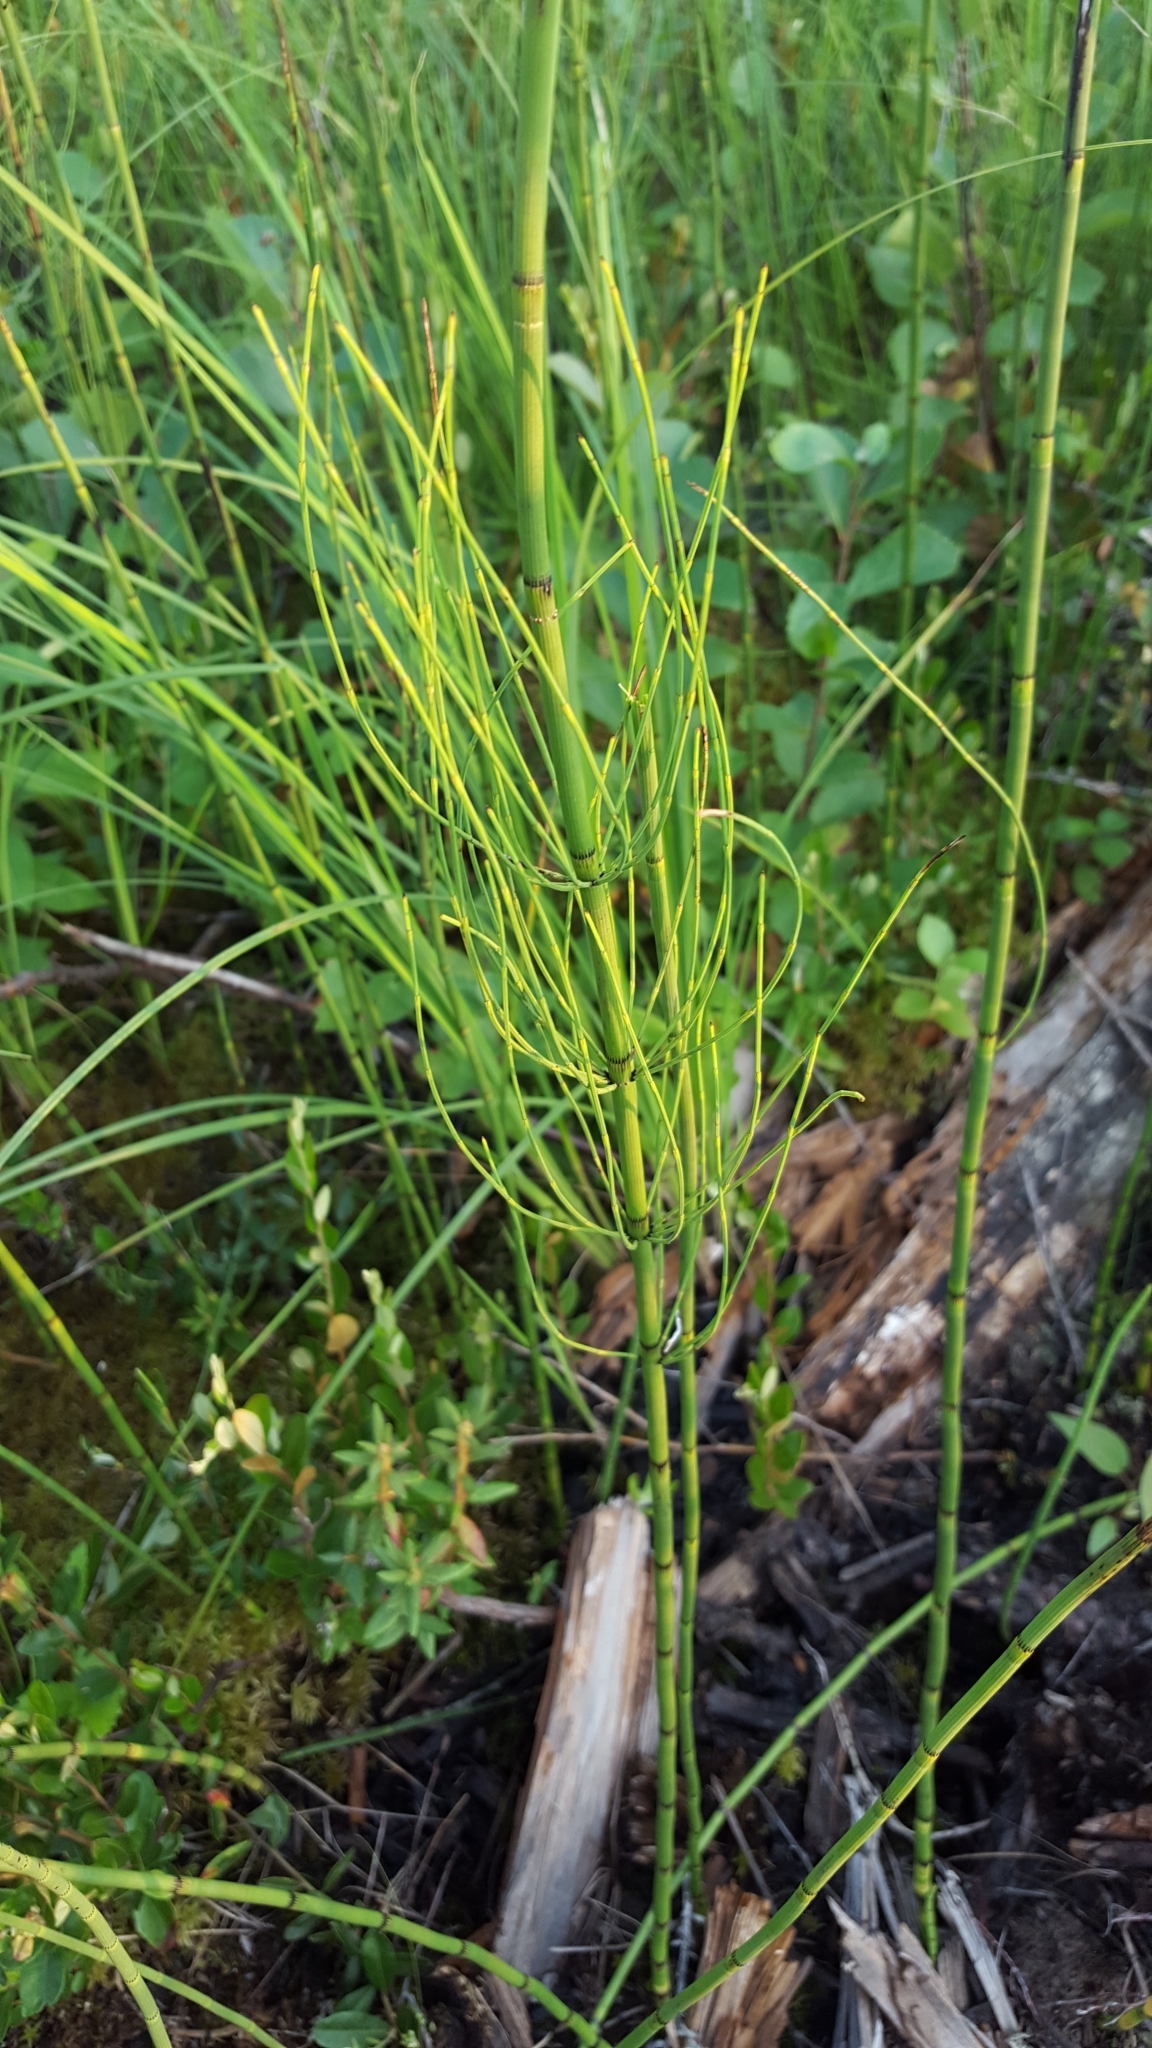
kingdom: Plantae
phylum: Tracheophyta
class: Polypodiopsida
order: Equisetales
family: Equisetaceae
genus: Equisetum
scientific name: Equisetum fluviatile
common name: Water horsetail
